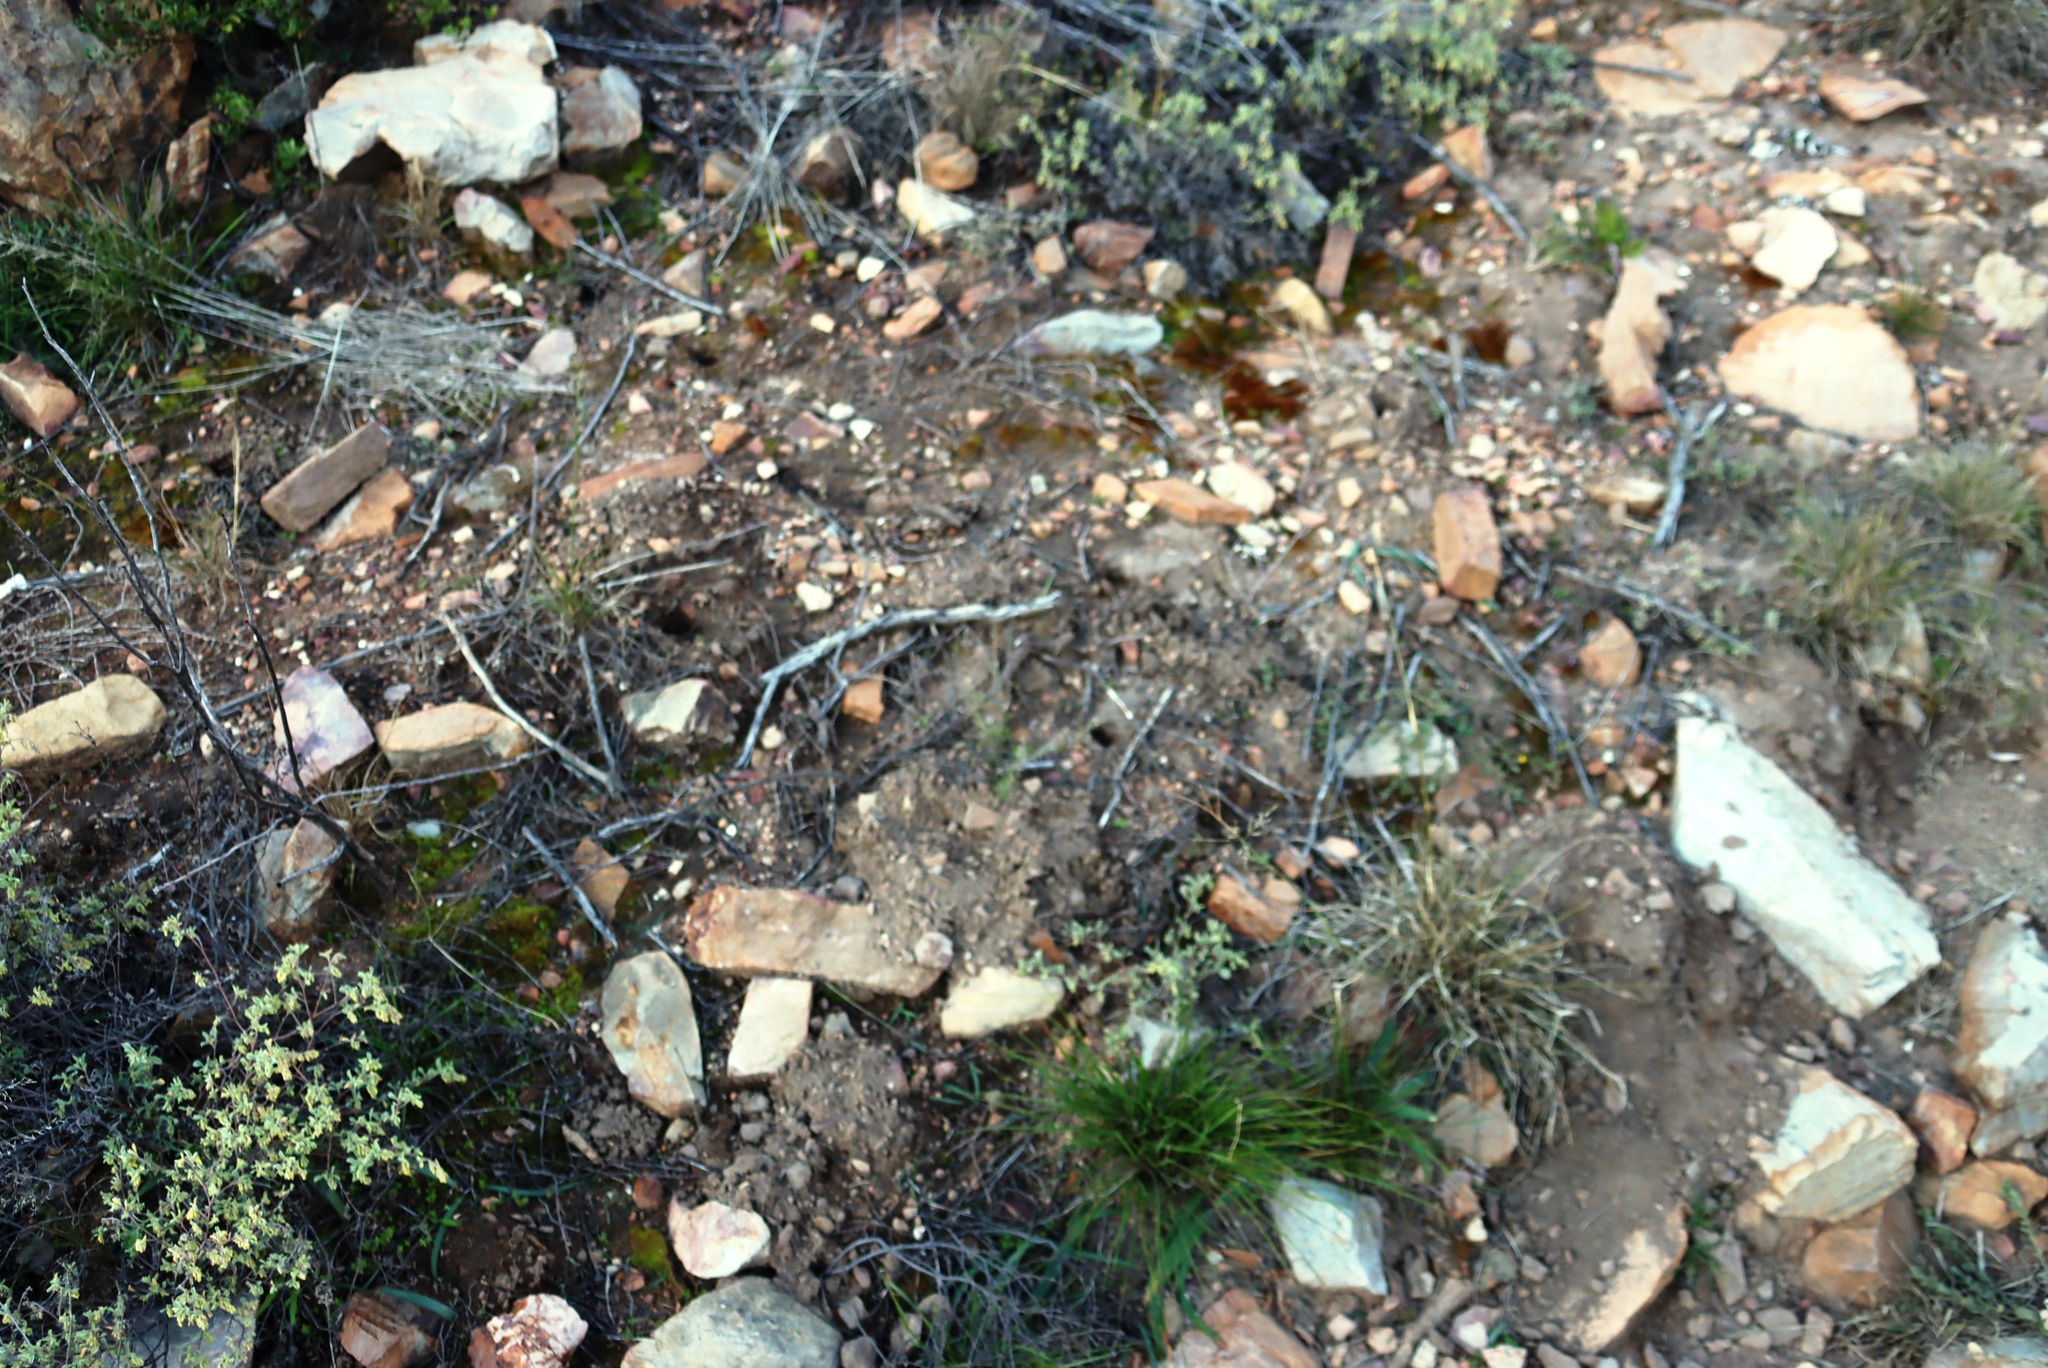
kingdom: Animalia
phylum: Chordata
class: Mammalia
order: Rodentia
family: Bathyergidae
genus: Cryptomys
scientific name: Cryptomys hottentotus
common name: Southern african mole-rat
